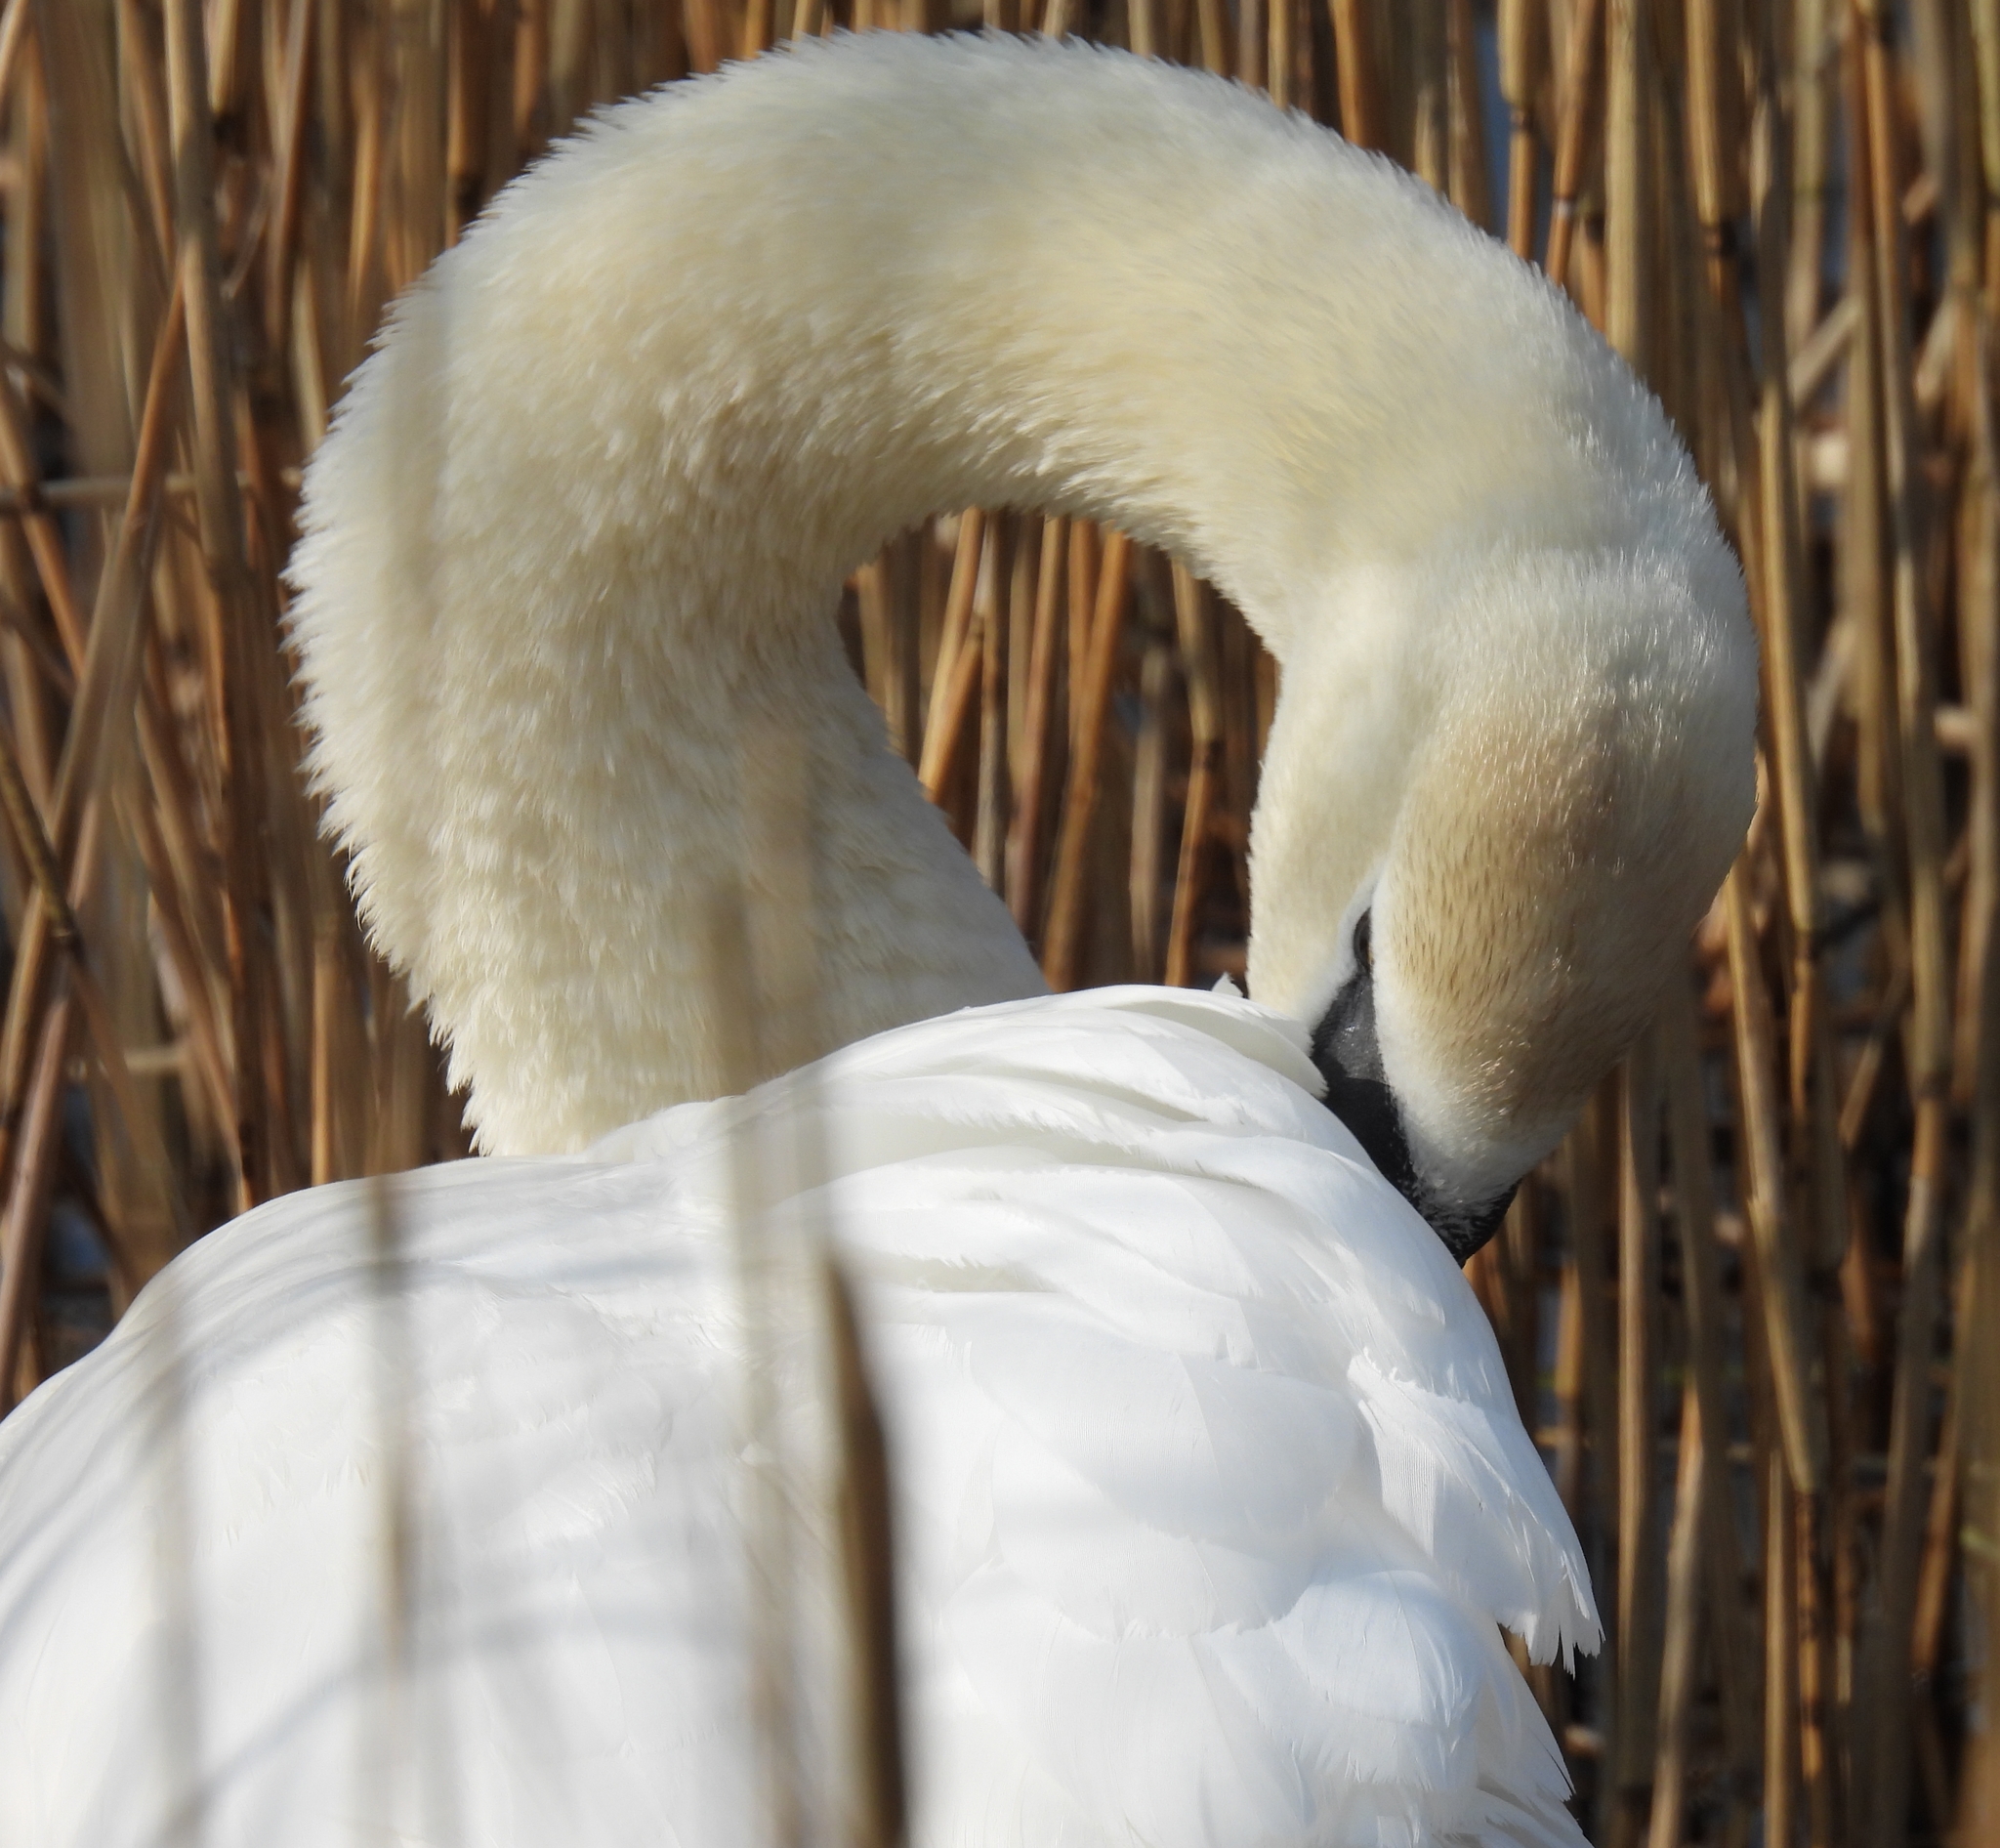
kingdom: Animalia
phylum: Chordata
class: Aves
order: Anseriformes
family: Anatidae
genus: Cygnus
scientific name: Cygnus olor
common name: Mute swan
